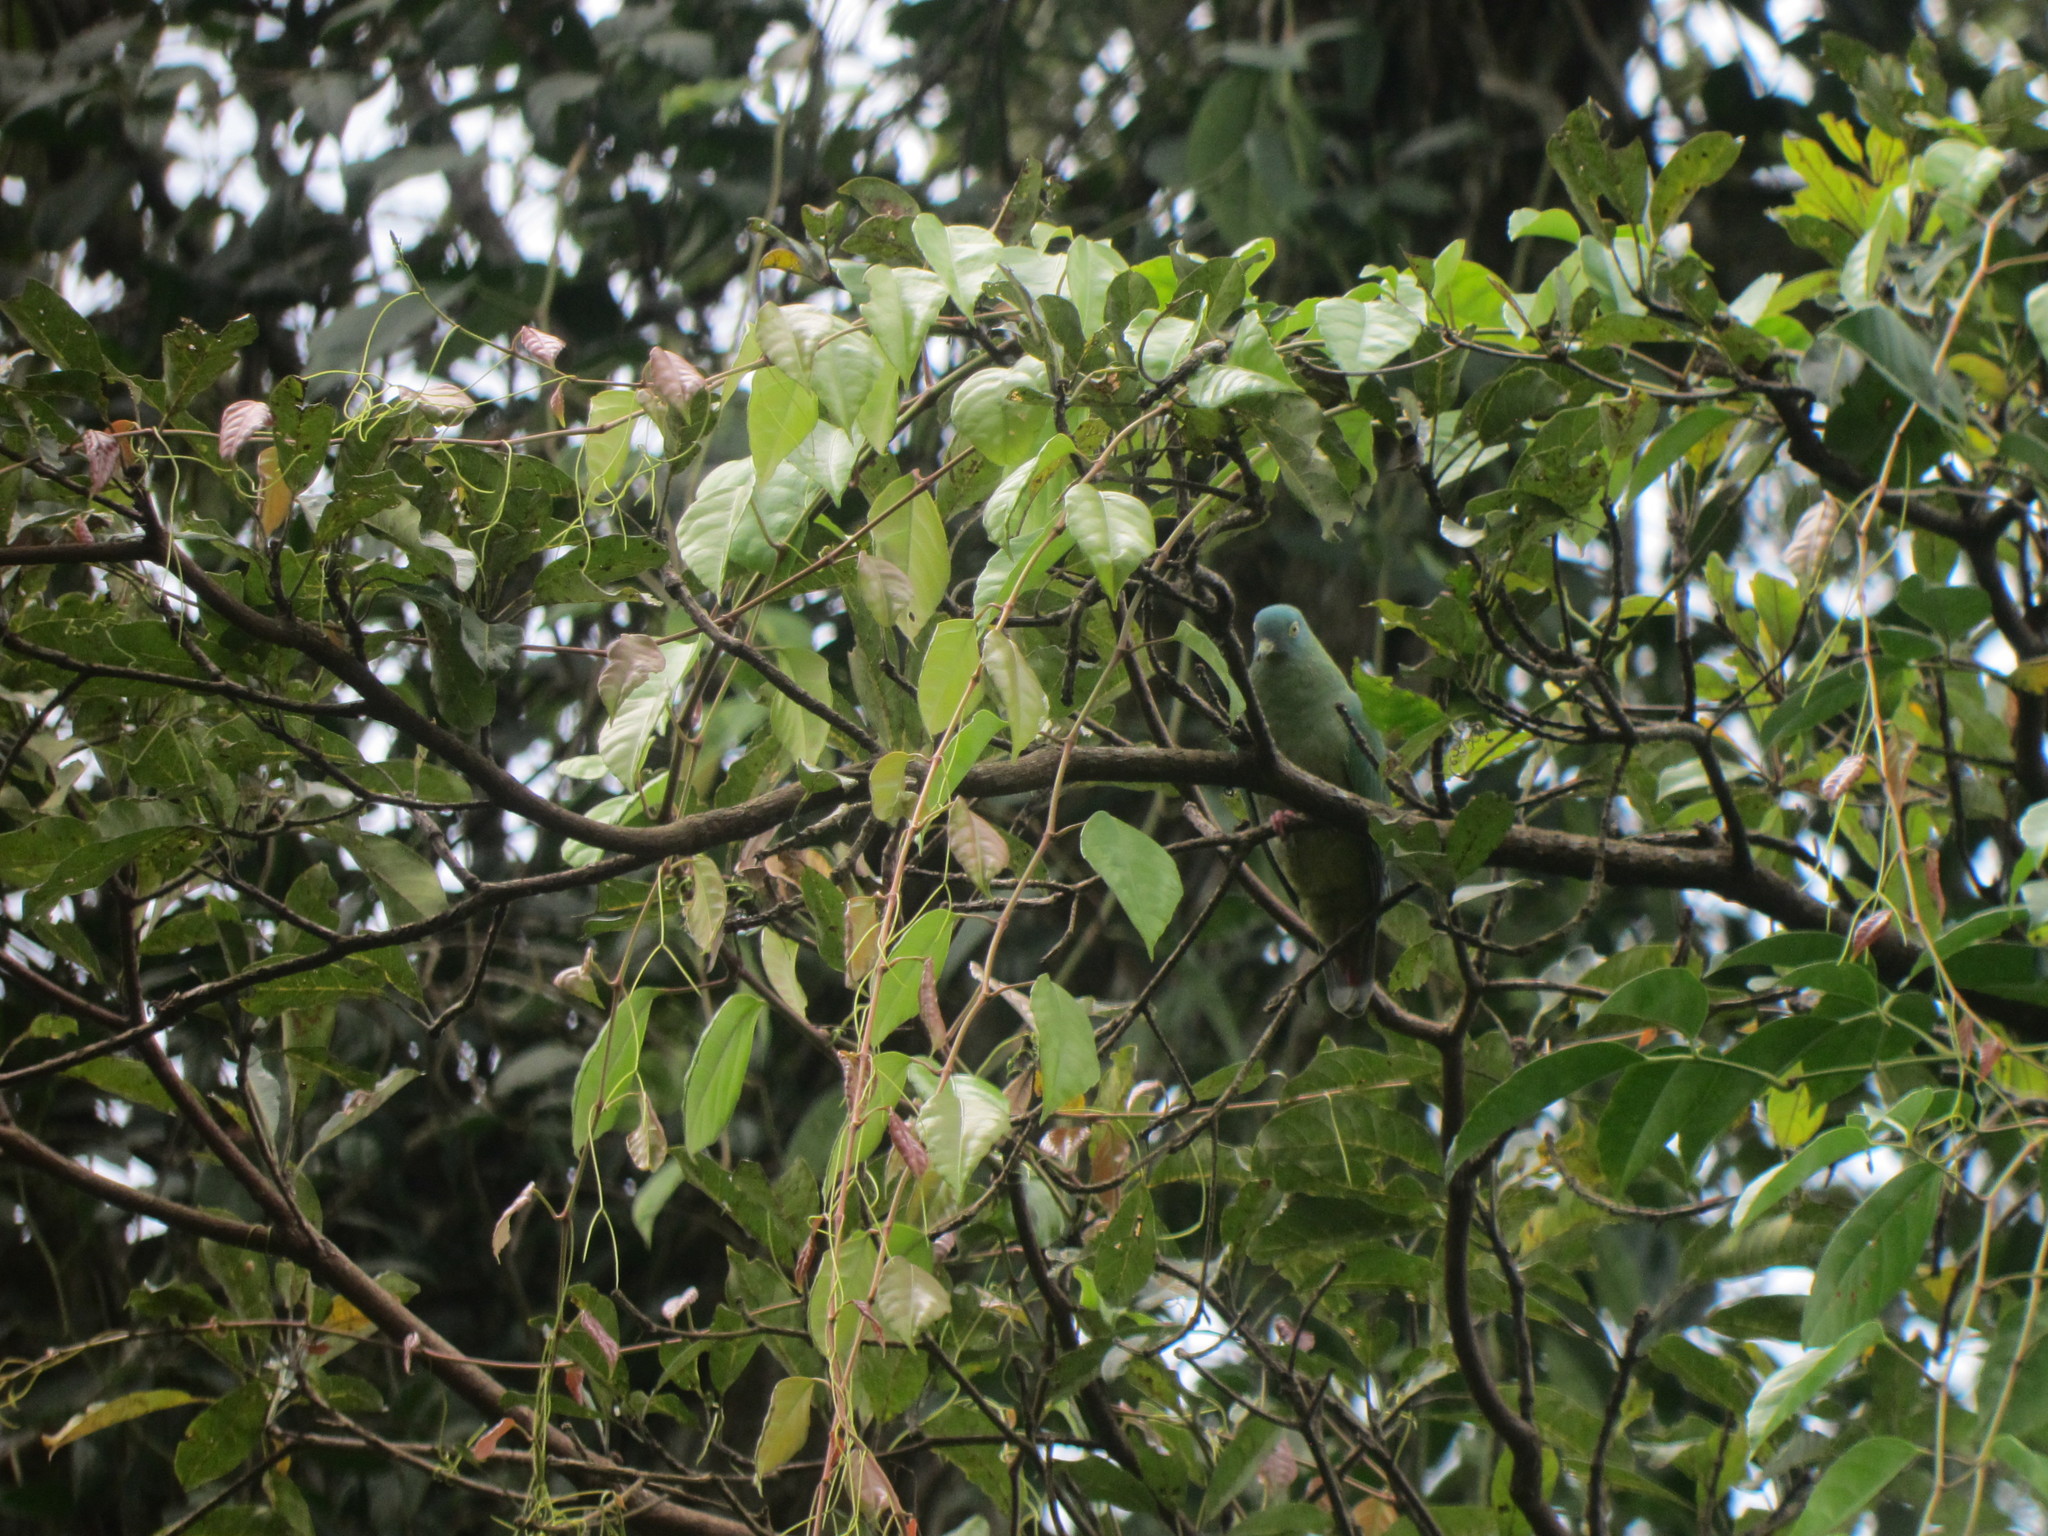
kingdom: Animalia
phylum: Chordata
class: Aves
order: Columbiformes
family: Columbidae
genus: Ptilinopus
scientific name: Ptilinopus melanospilus
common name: Black-naped fruit dove
